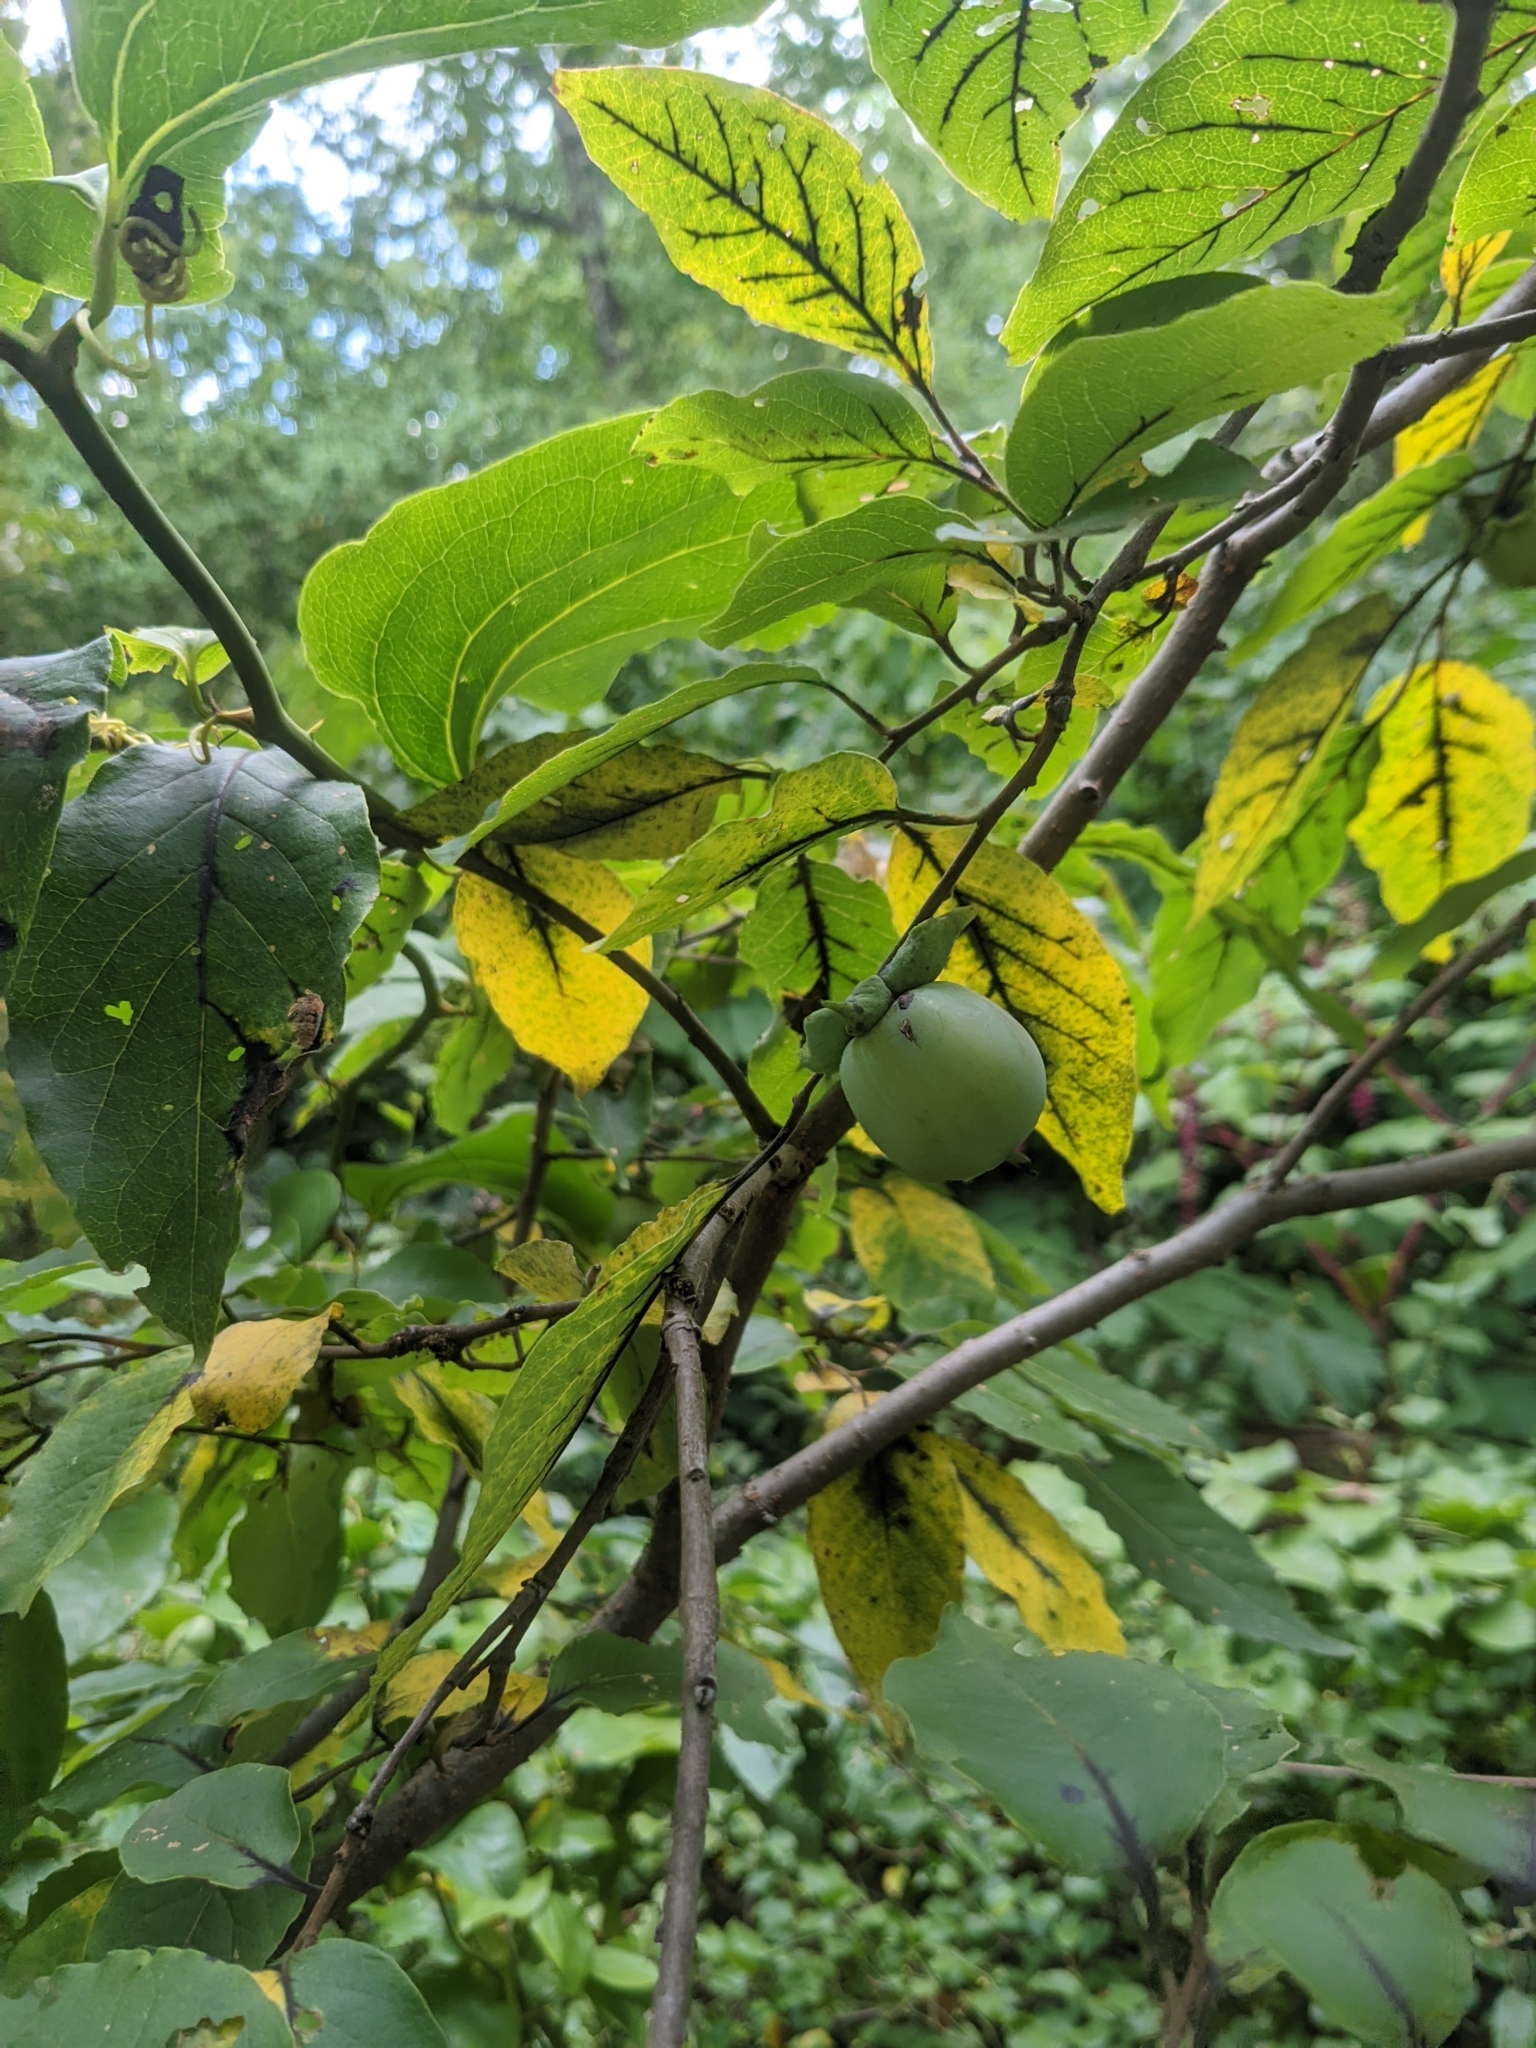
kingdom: Plantae
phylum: Tracheophyta
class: Magnoliopsida
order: Ericales
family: Ebenaceae
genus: Diospyros
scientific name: Diospyros virginiana
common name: Persimmon
